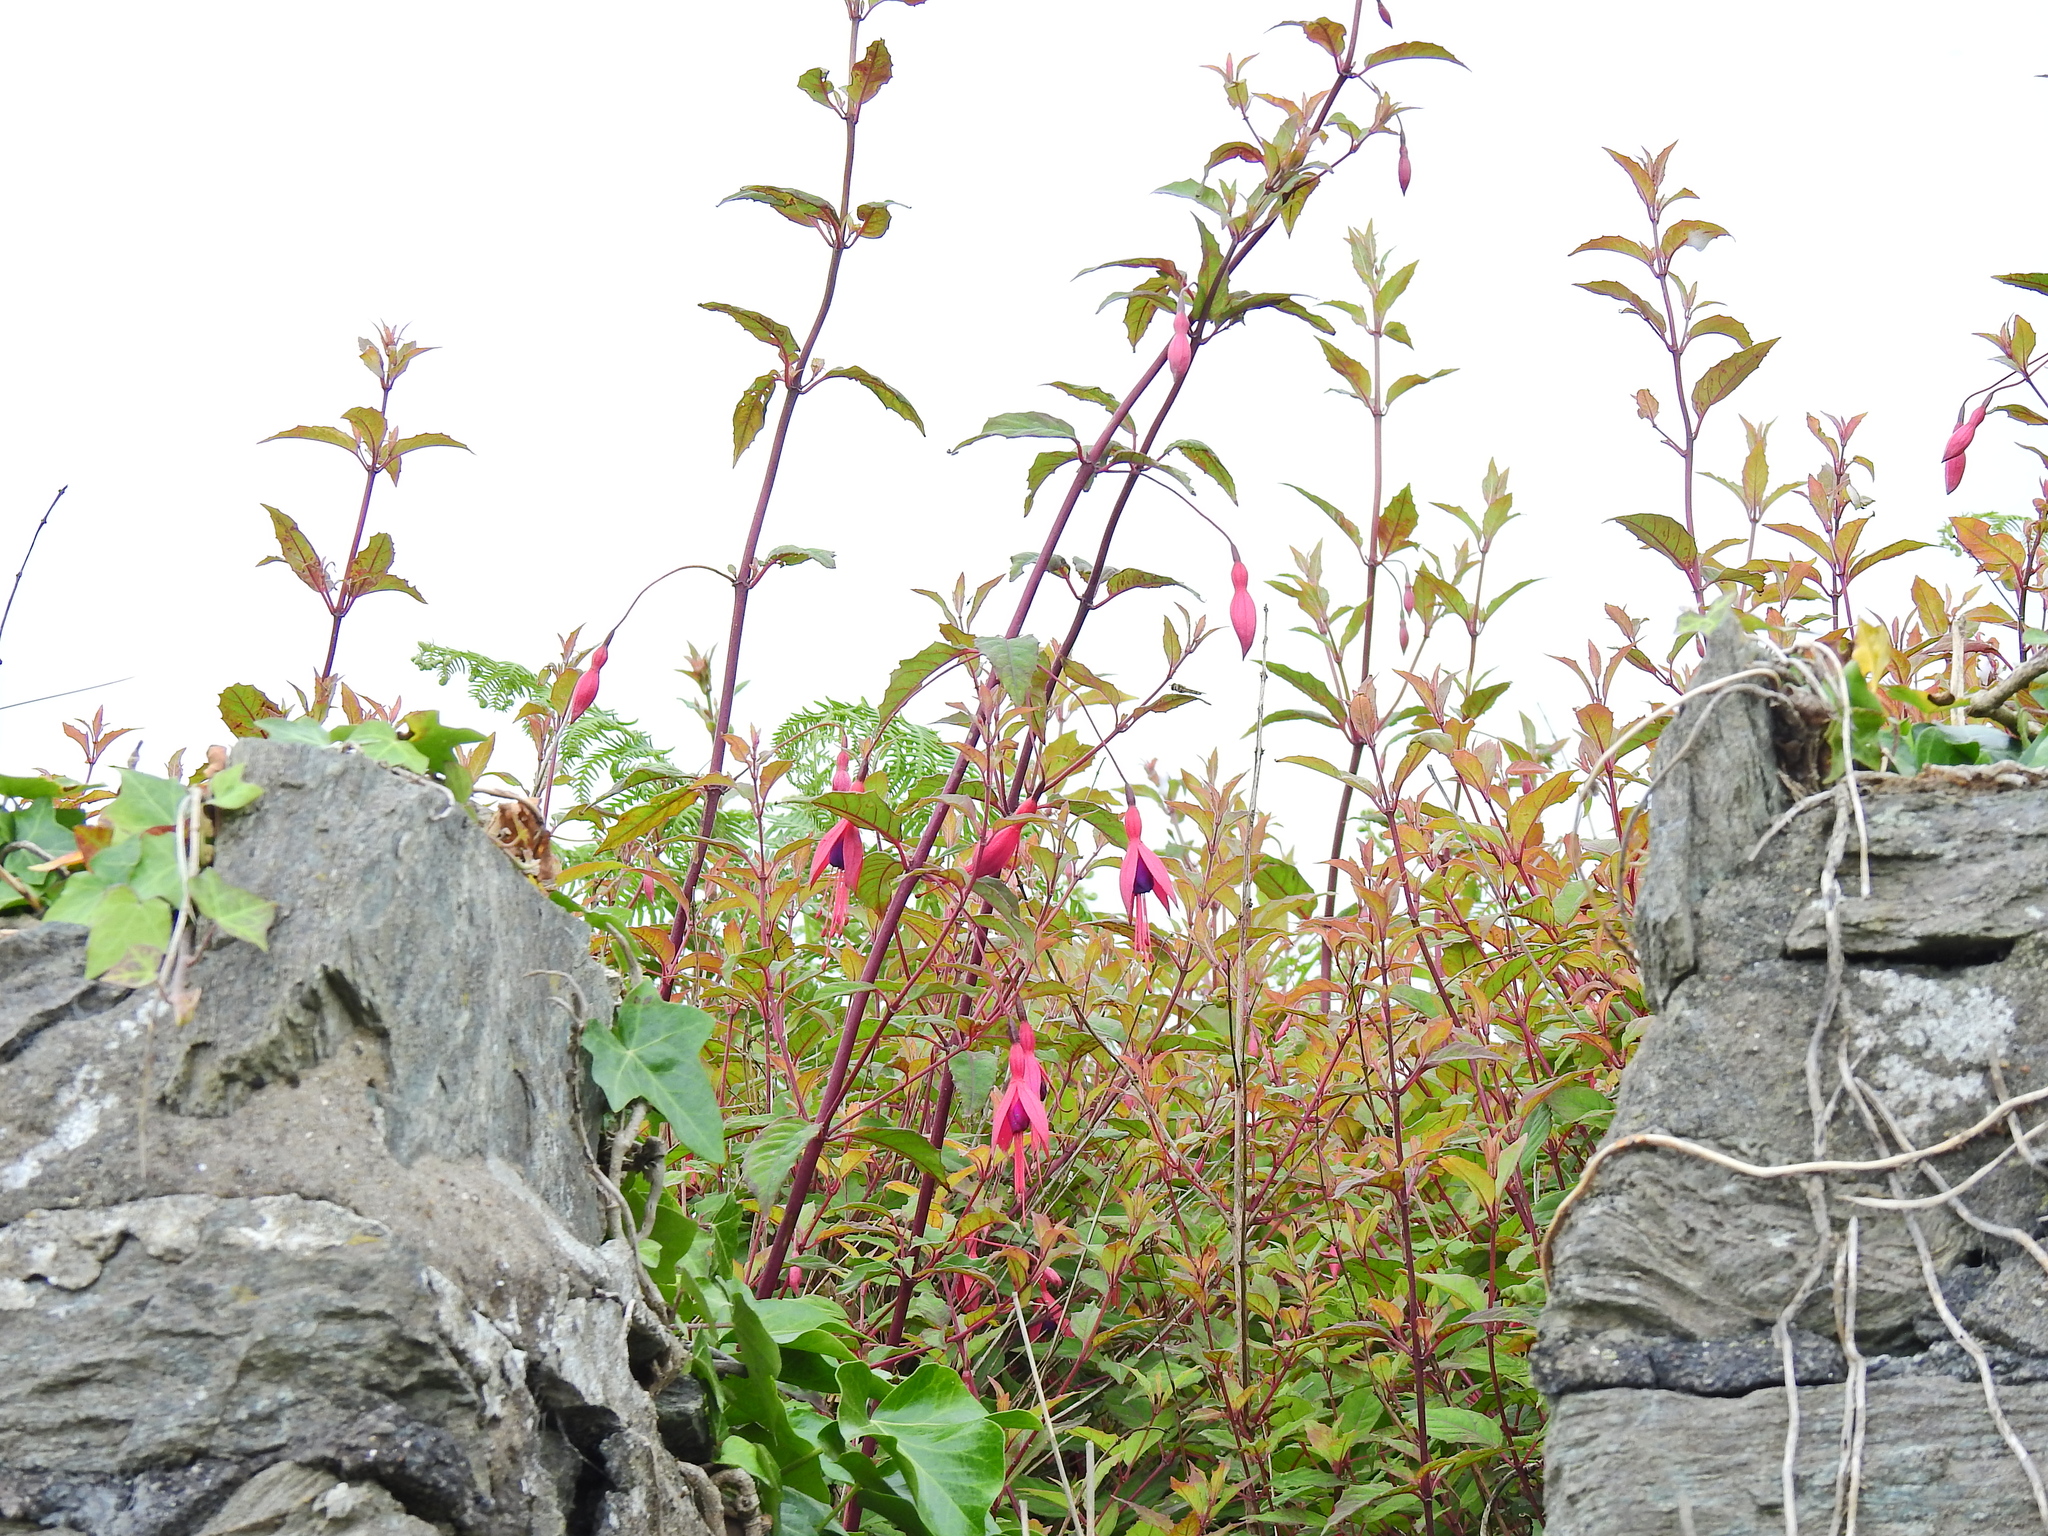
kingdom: Plantae
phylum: Tracheophyta
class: Magnoliopsida
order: Myrtales
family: Onagraceae
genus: Fuchsia
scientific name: Fuchsia magellanica
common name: Hardy fuchsia
